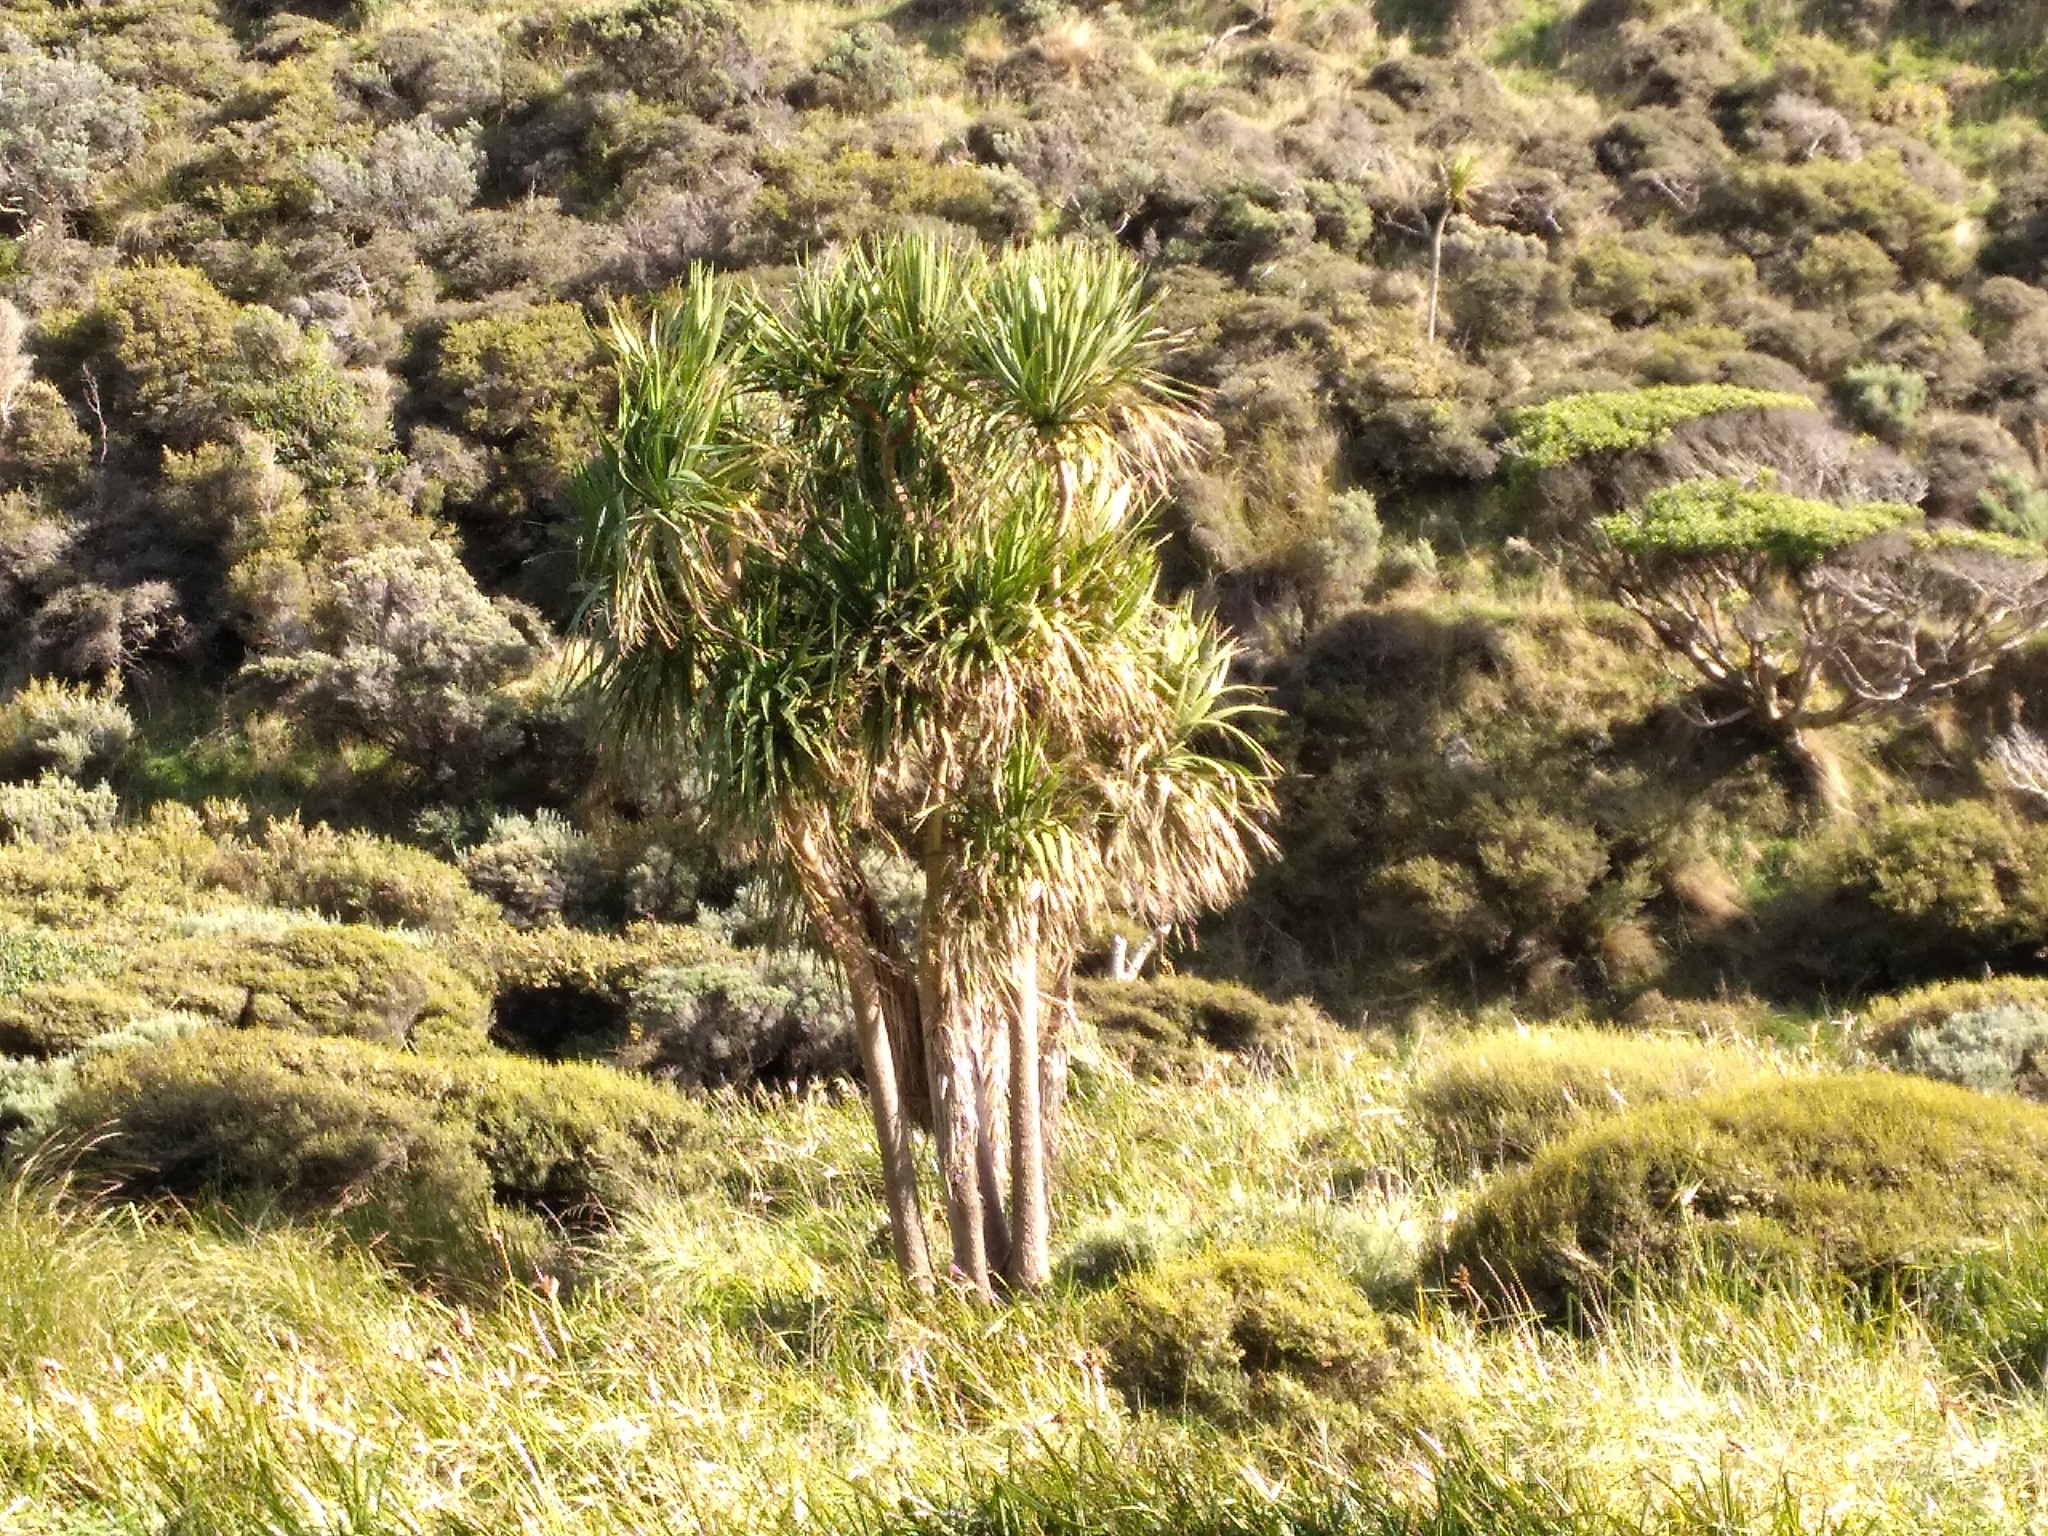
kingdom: Plantae
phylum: Tracheophyta
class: Liliopsida
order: Asparagales
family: Asparagaceae
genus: Cordyline
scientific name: Cordyline australis
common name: Cabbage-palm
